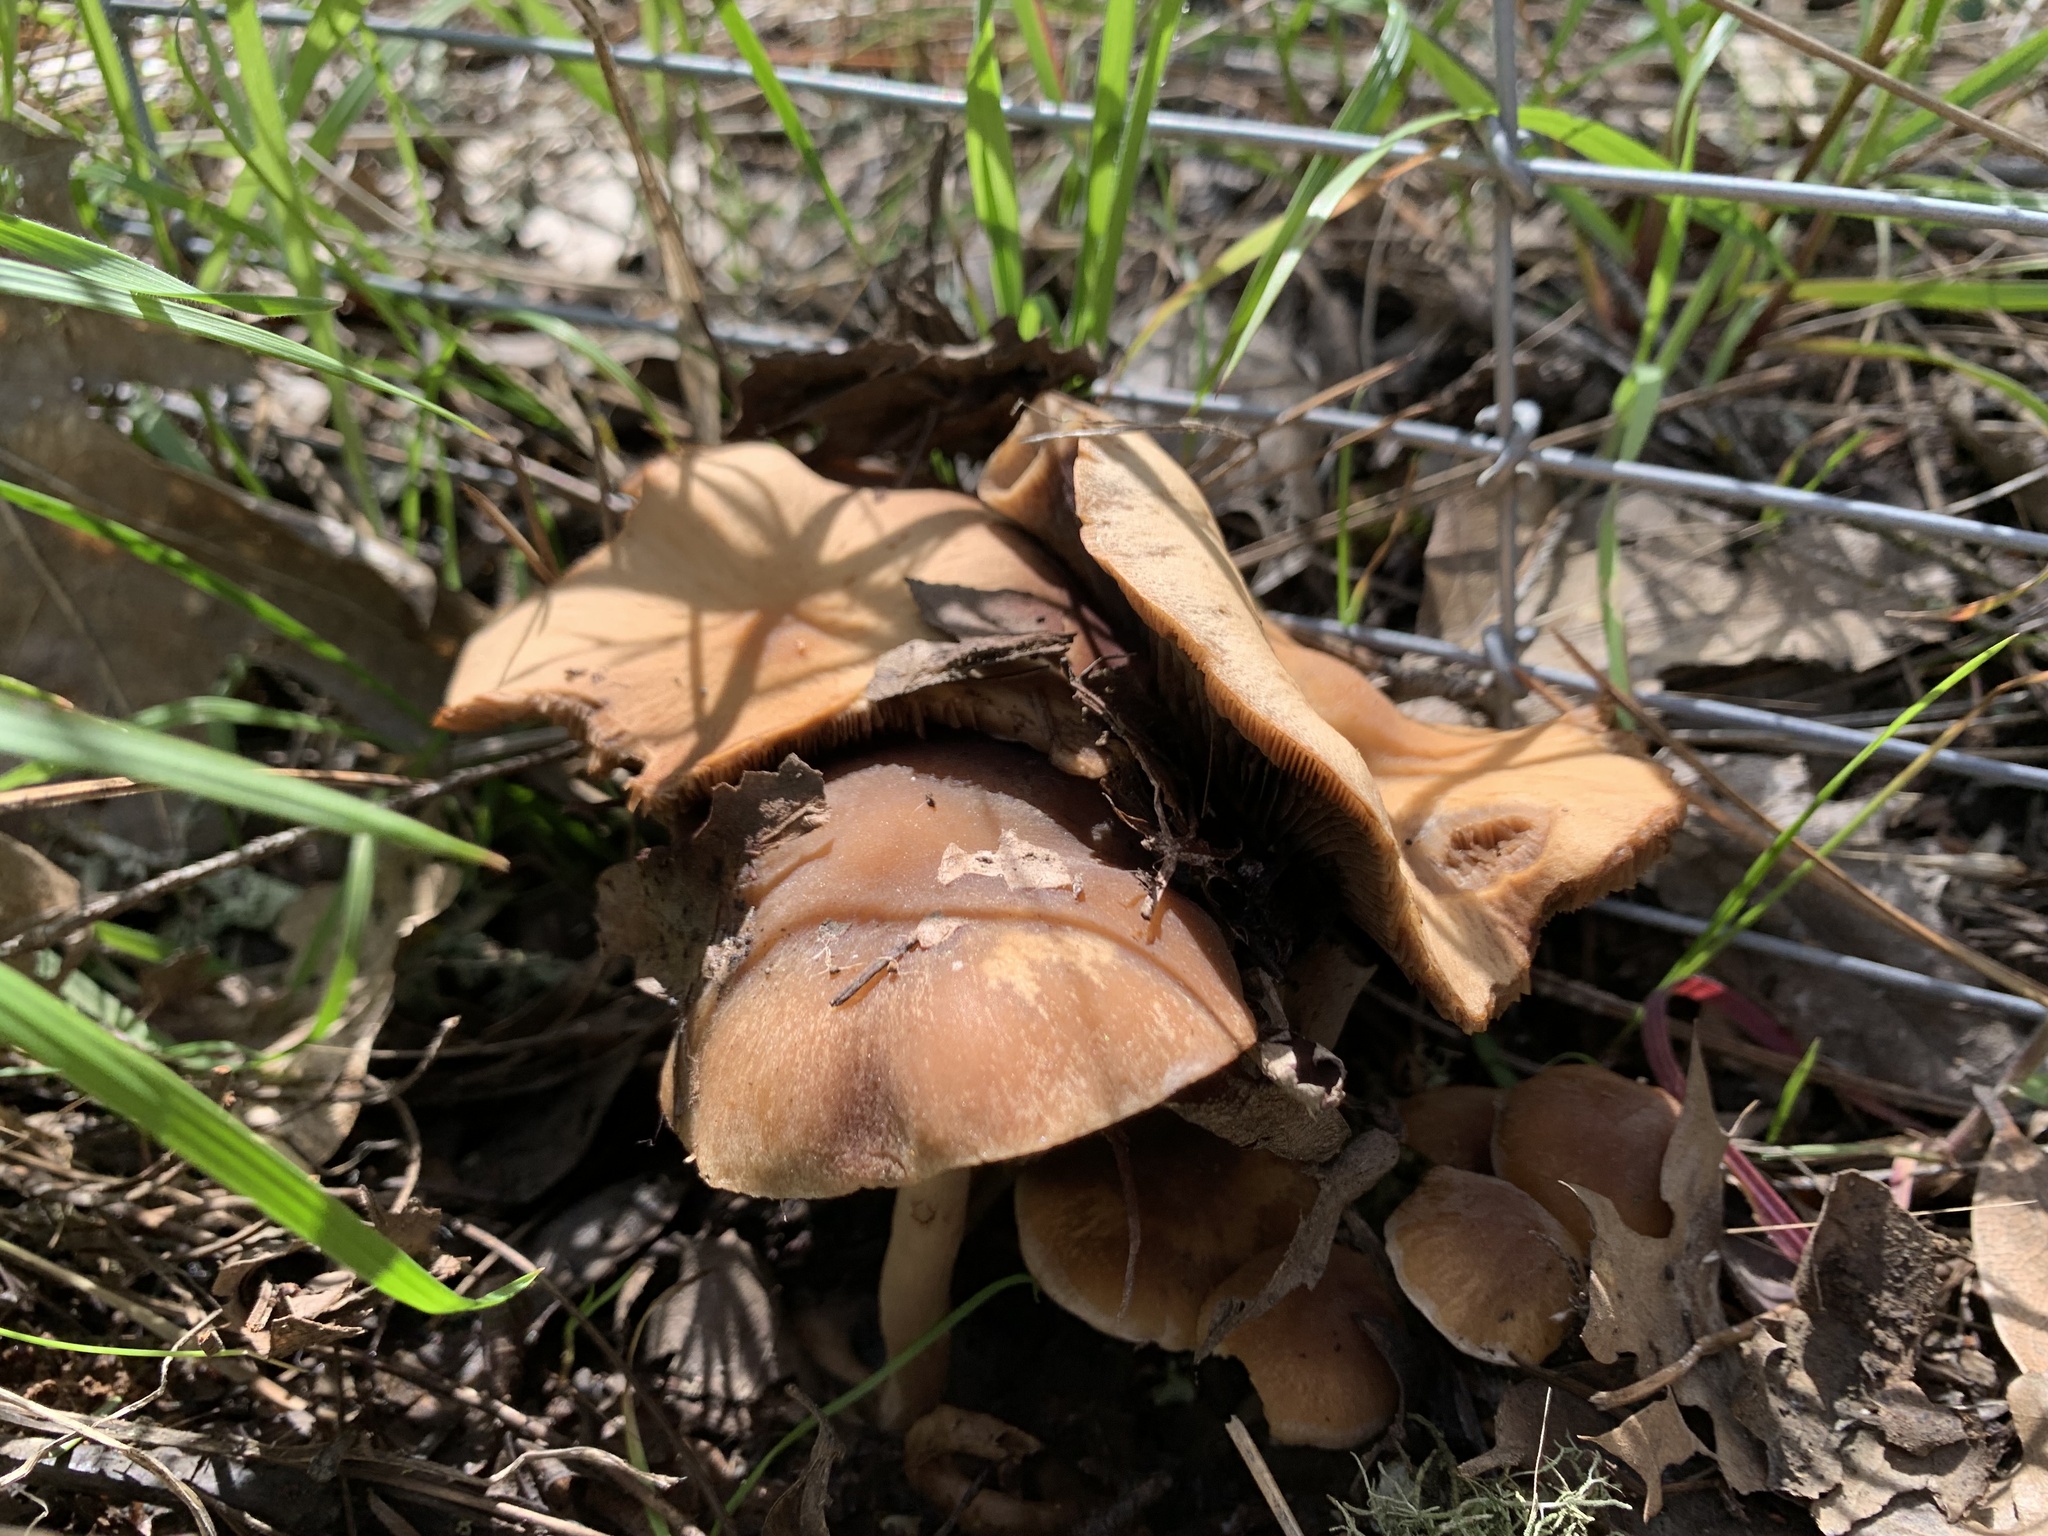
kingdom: Fungi
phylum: Basidiomycota
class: Agaricomycetes
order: Agaricales
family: Psathyrellaceae
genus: Psathyrella
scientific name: Psathyrella piluliformis
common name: Common stump brittlestem
